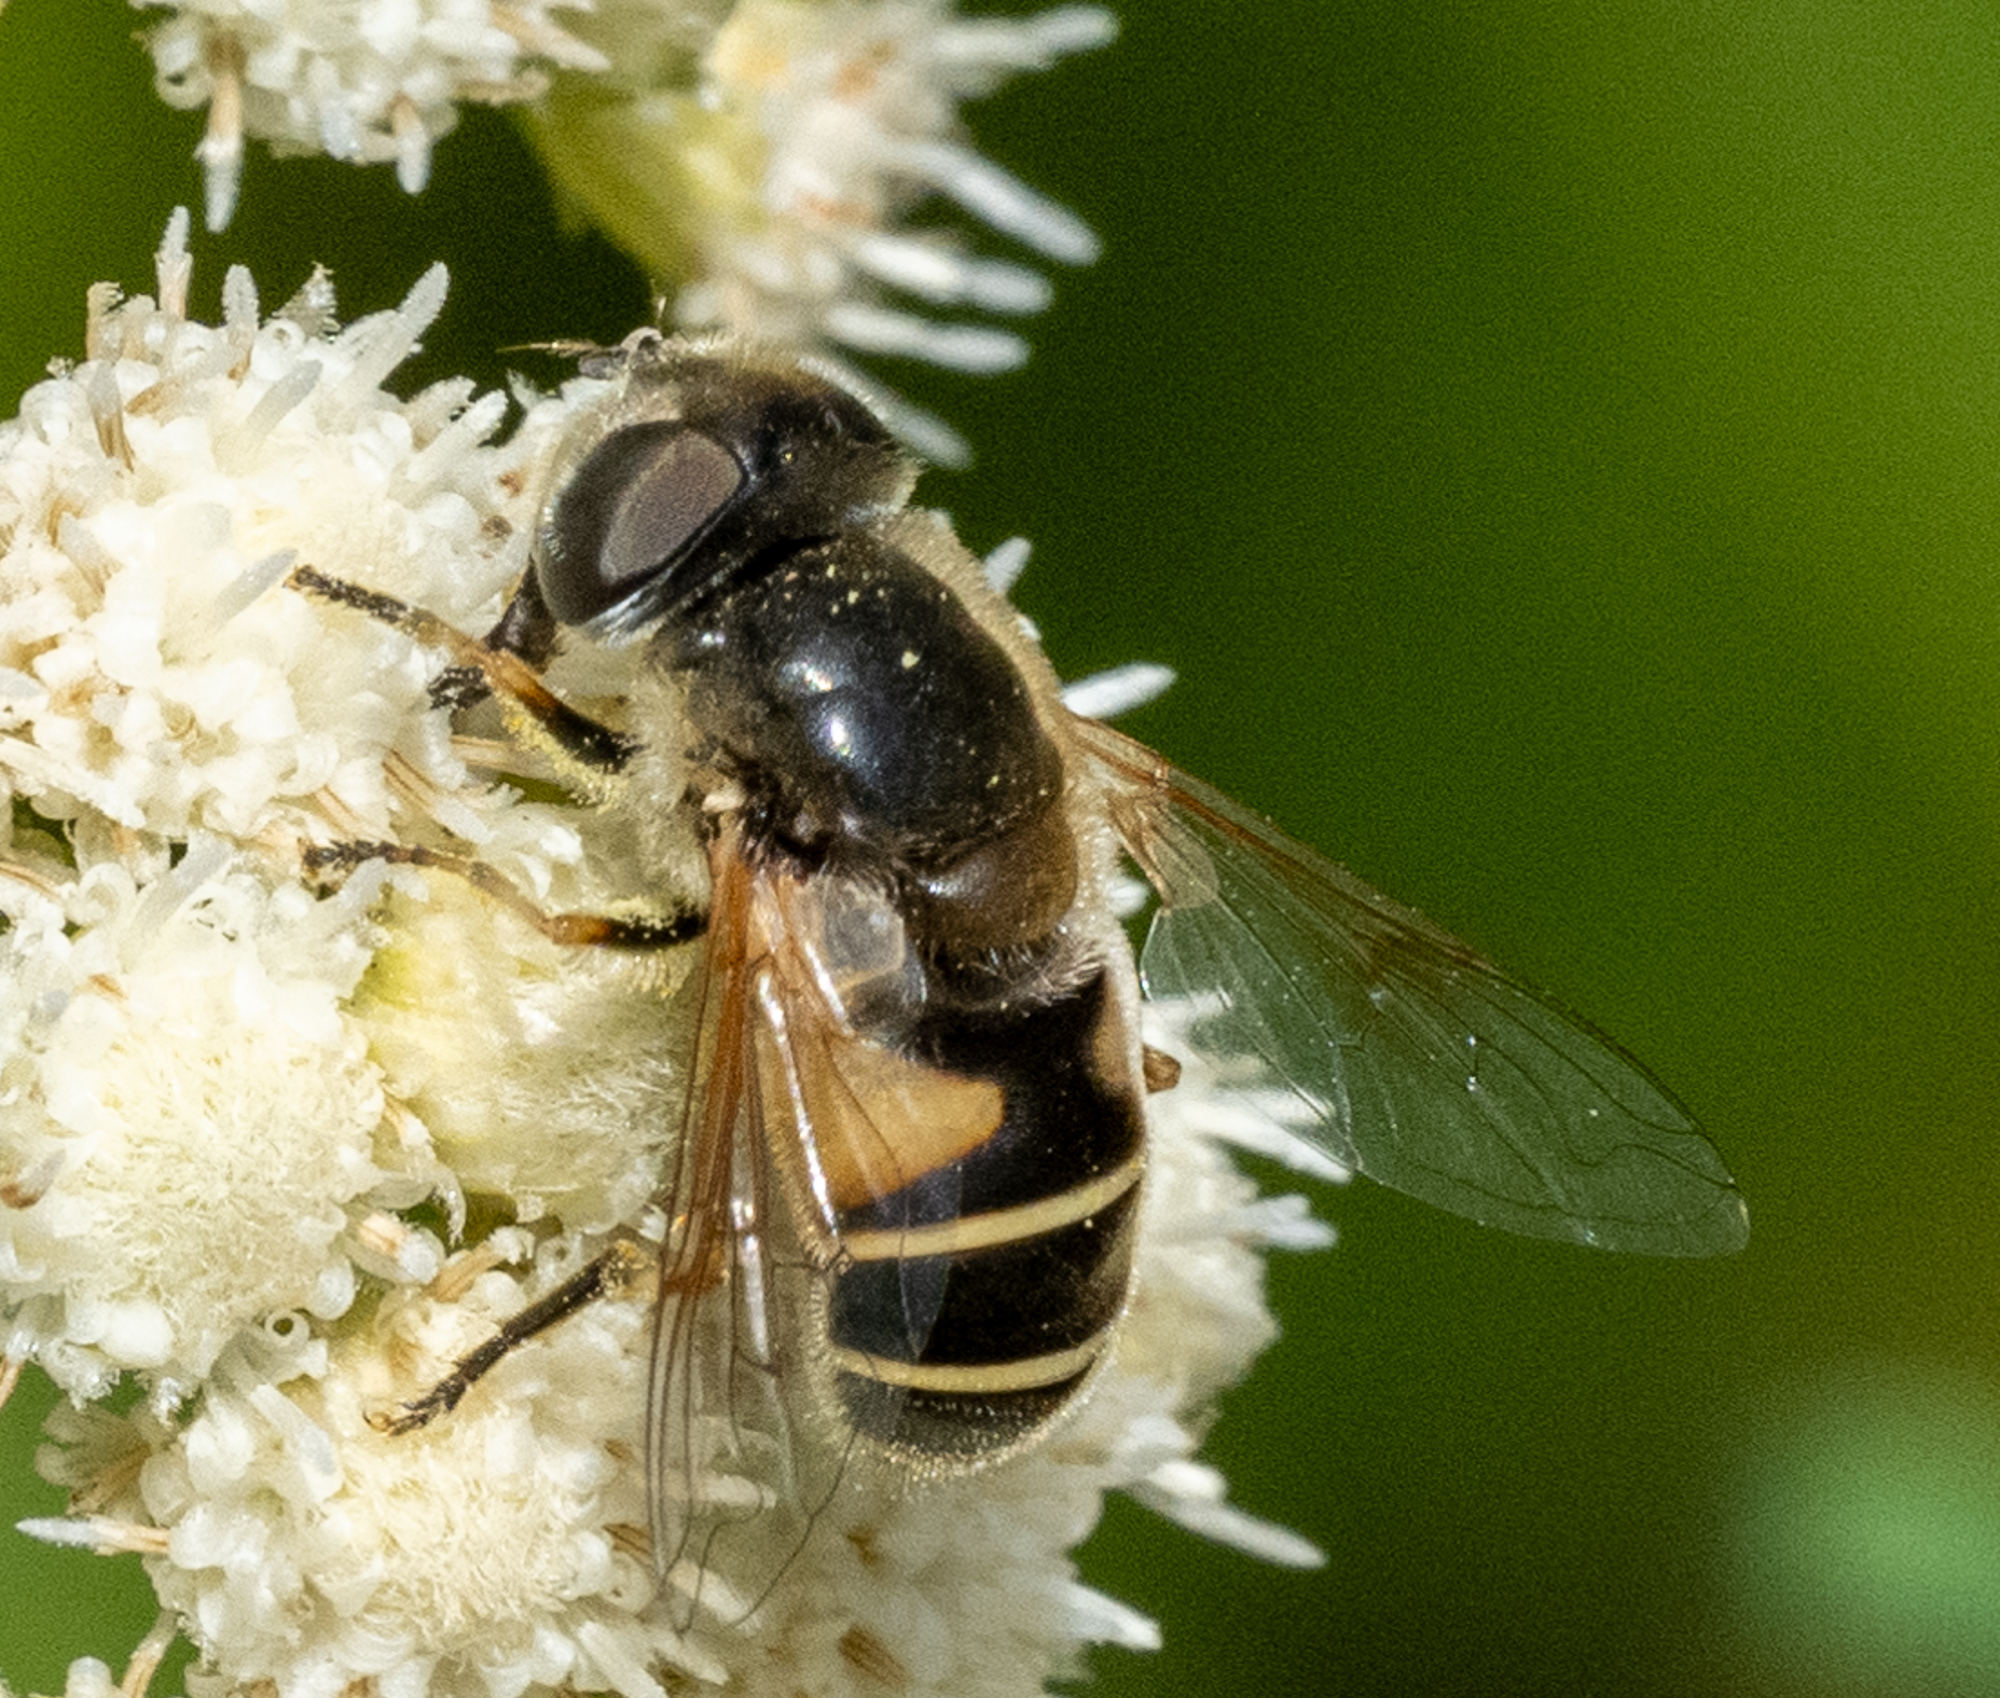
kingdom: Animalia
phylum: Arthropoda
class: Insecta
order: Diptera
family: Syrphidae
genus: Eristalis
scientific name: Eristalis hirta
